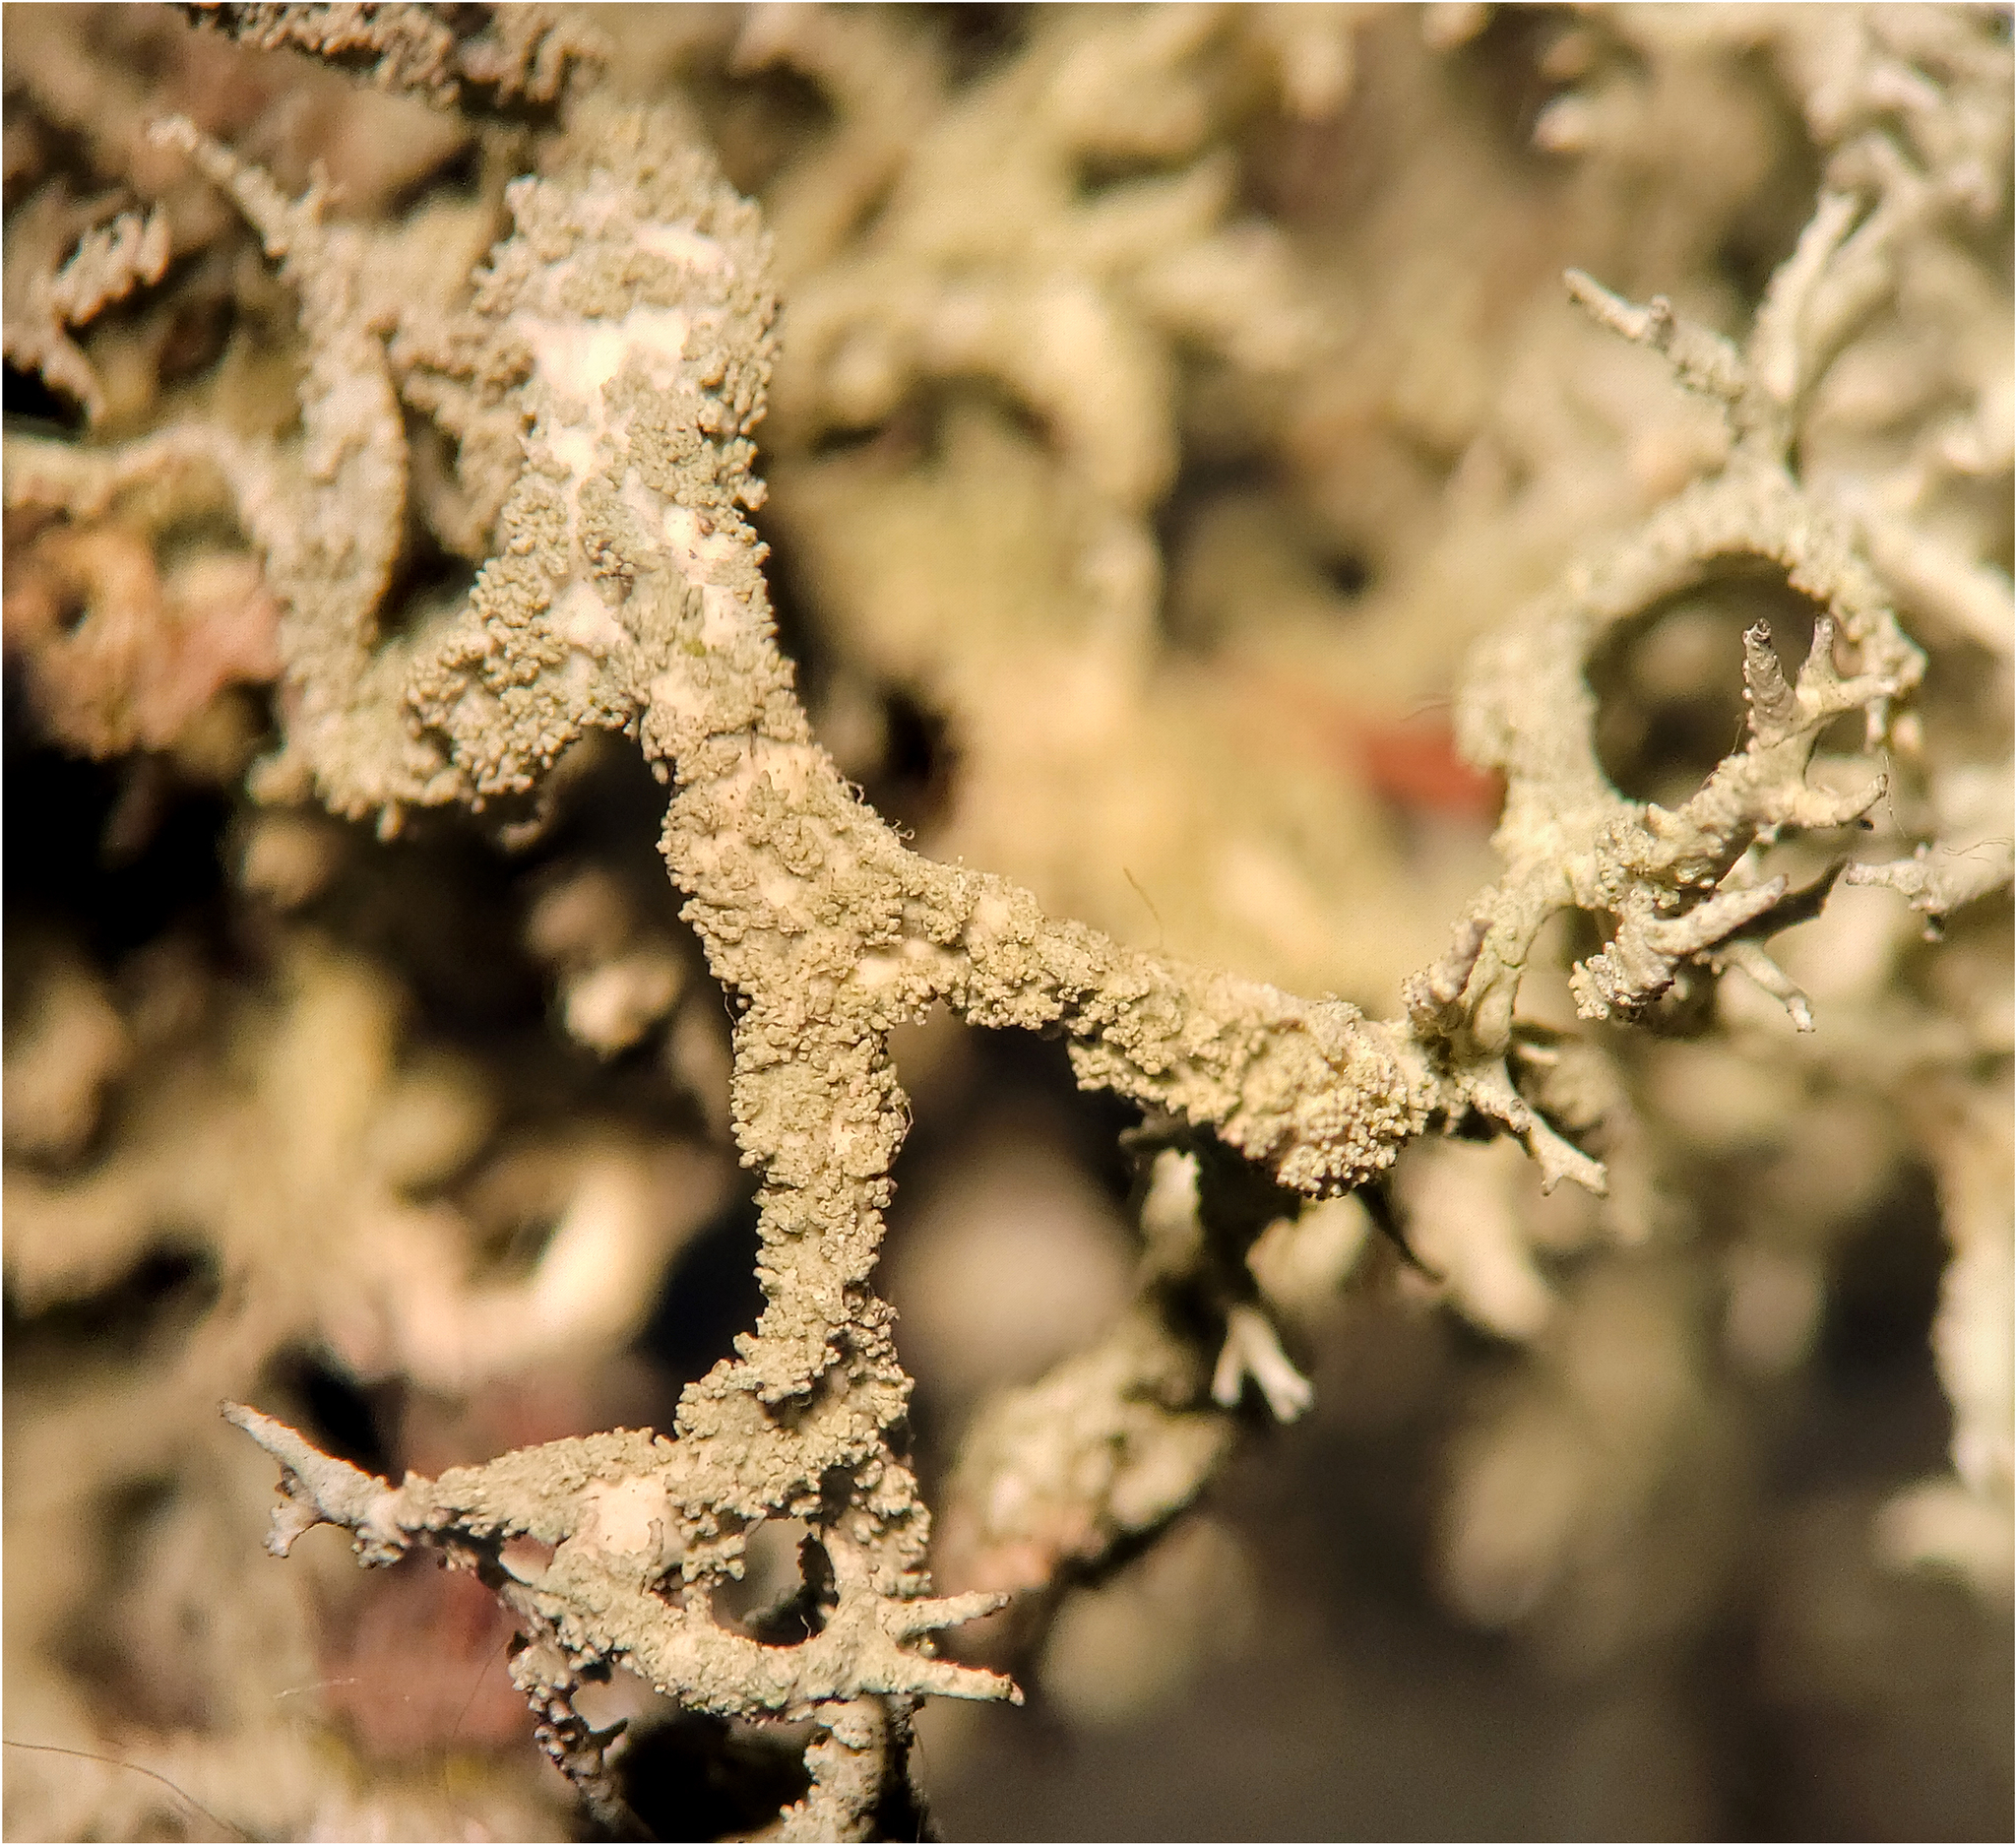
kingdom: Fungi
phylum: Ascomycota
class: Lecanoromycetes
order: Lecanorales
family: Parmeliaceae
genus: Evernia
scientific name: Evernia mesomorpha
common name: Boreal oak moss lichen
